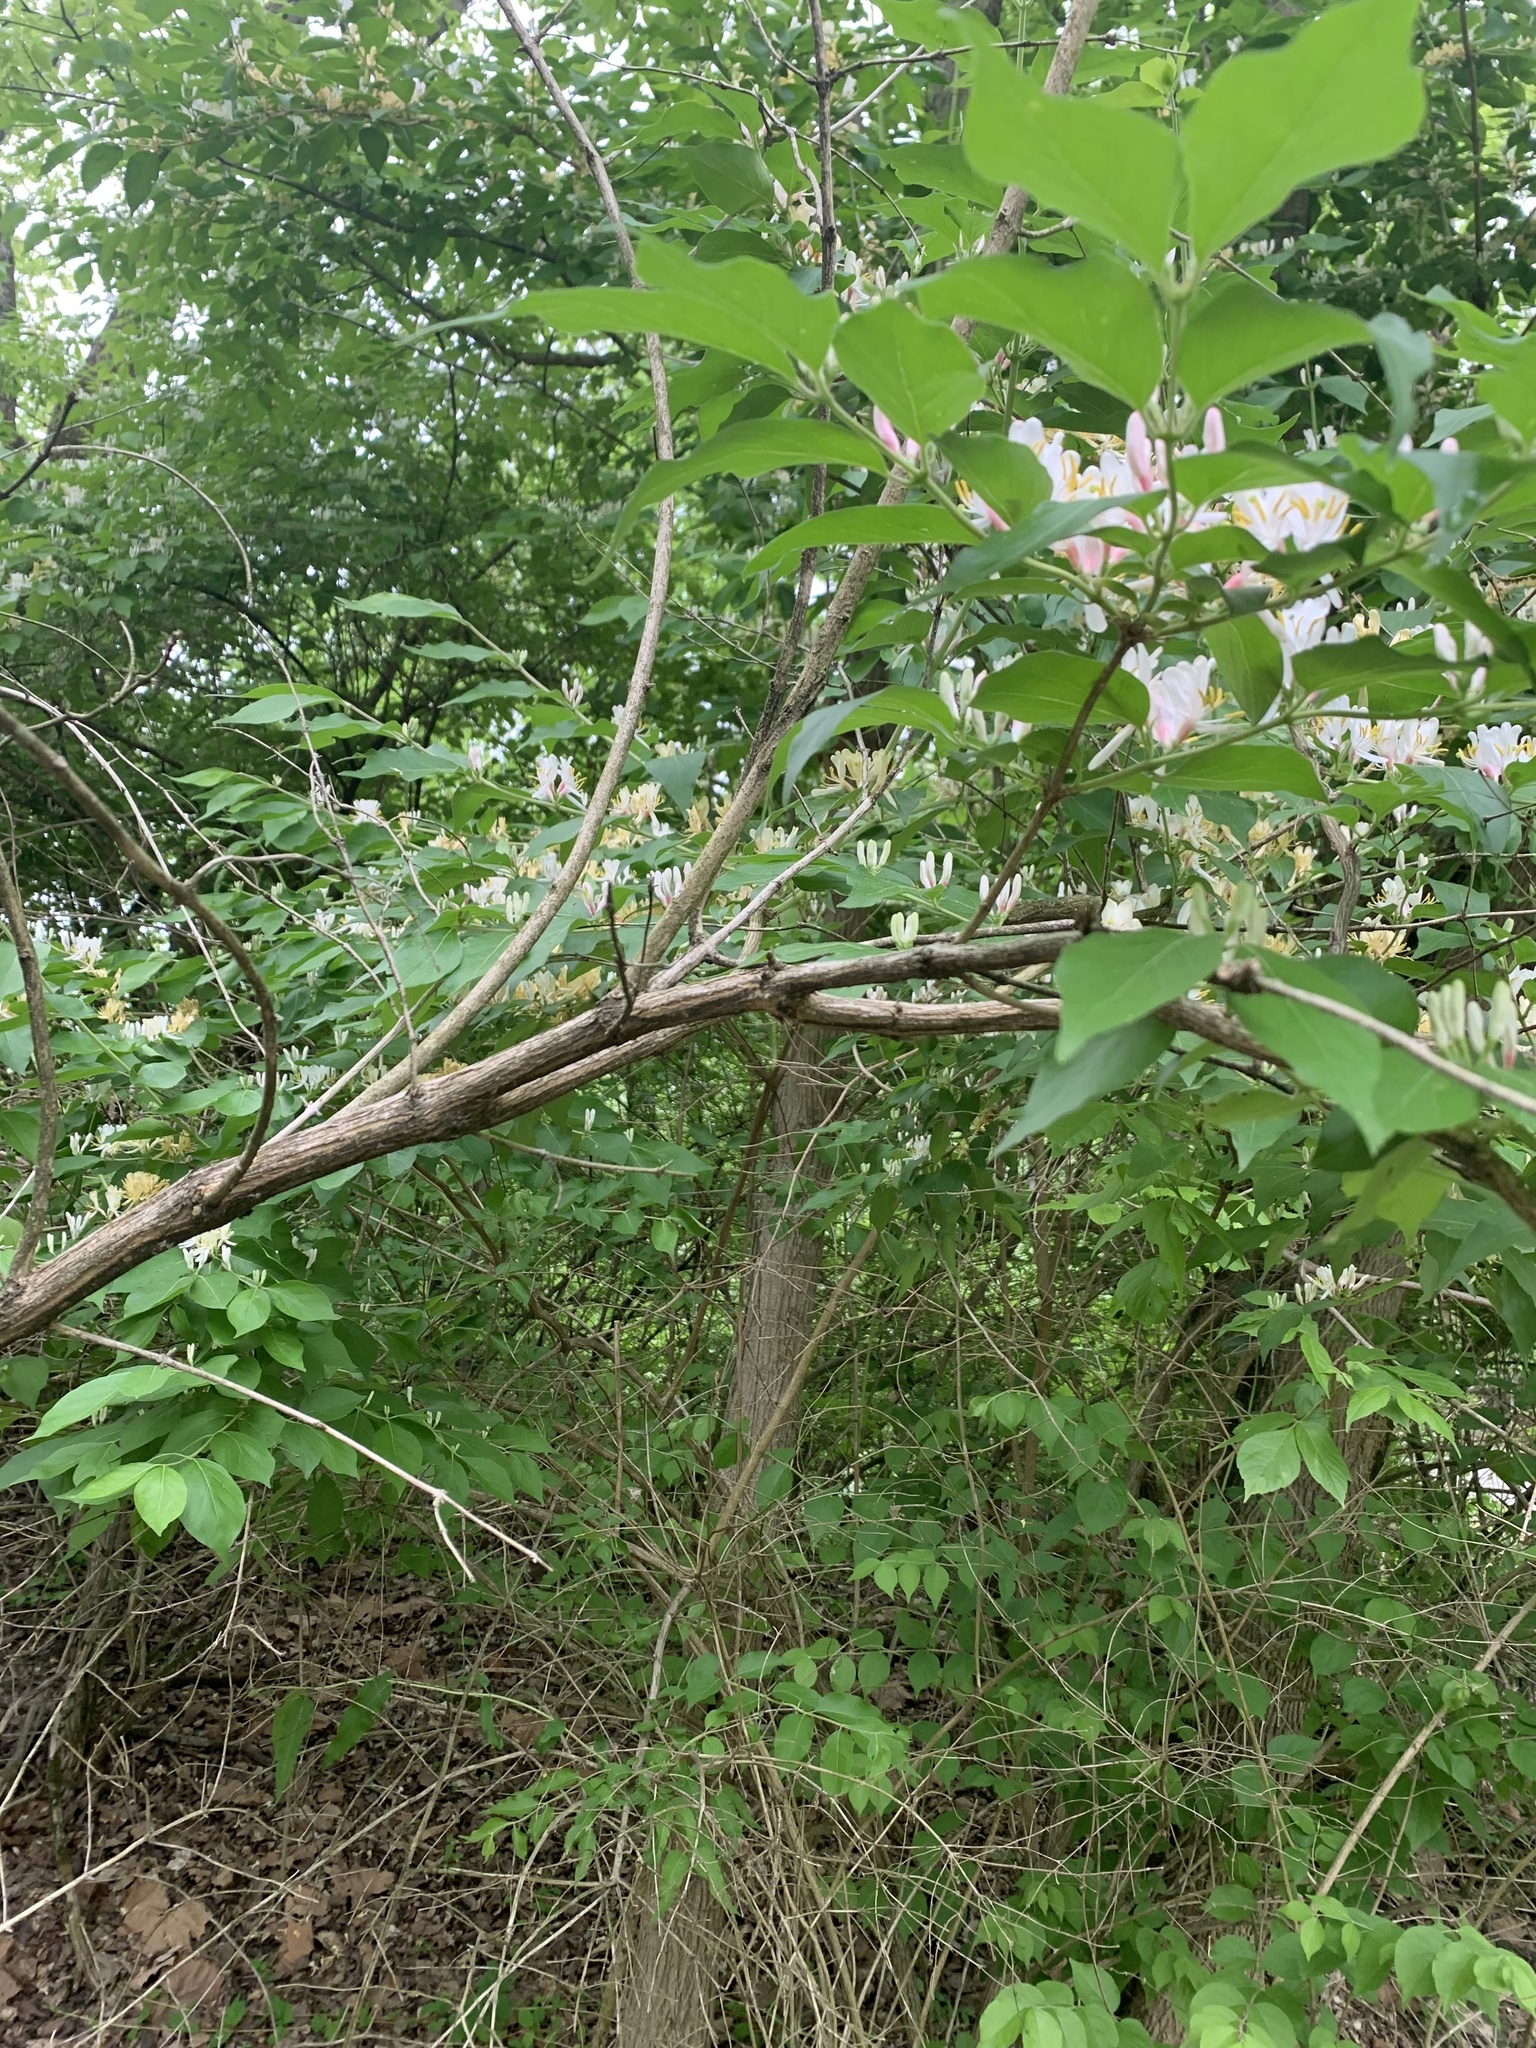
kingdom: Plantae
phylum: Tracheophyta
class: Magnoliopsida
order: Dipsacales
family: Caprifoliaceae
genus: Lonicera
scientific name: Lonicera maackii
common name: Amur honeysuckle
